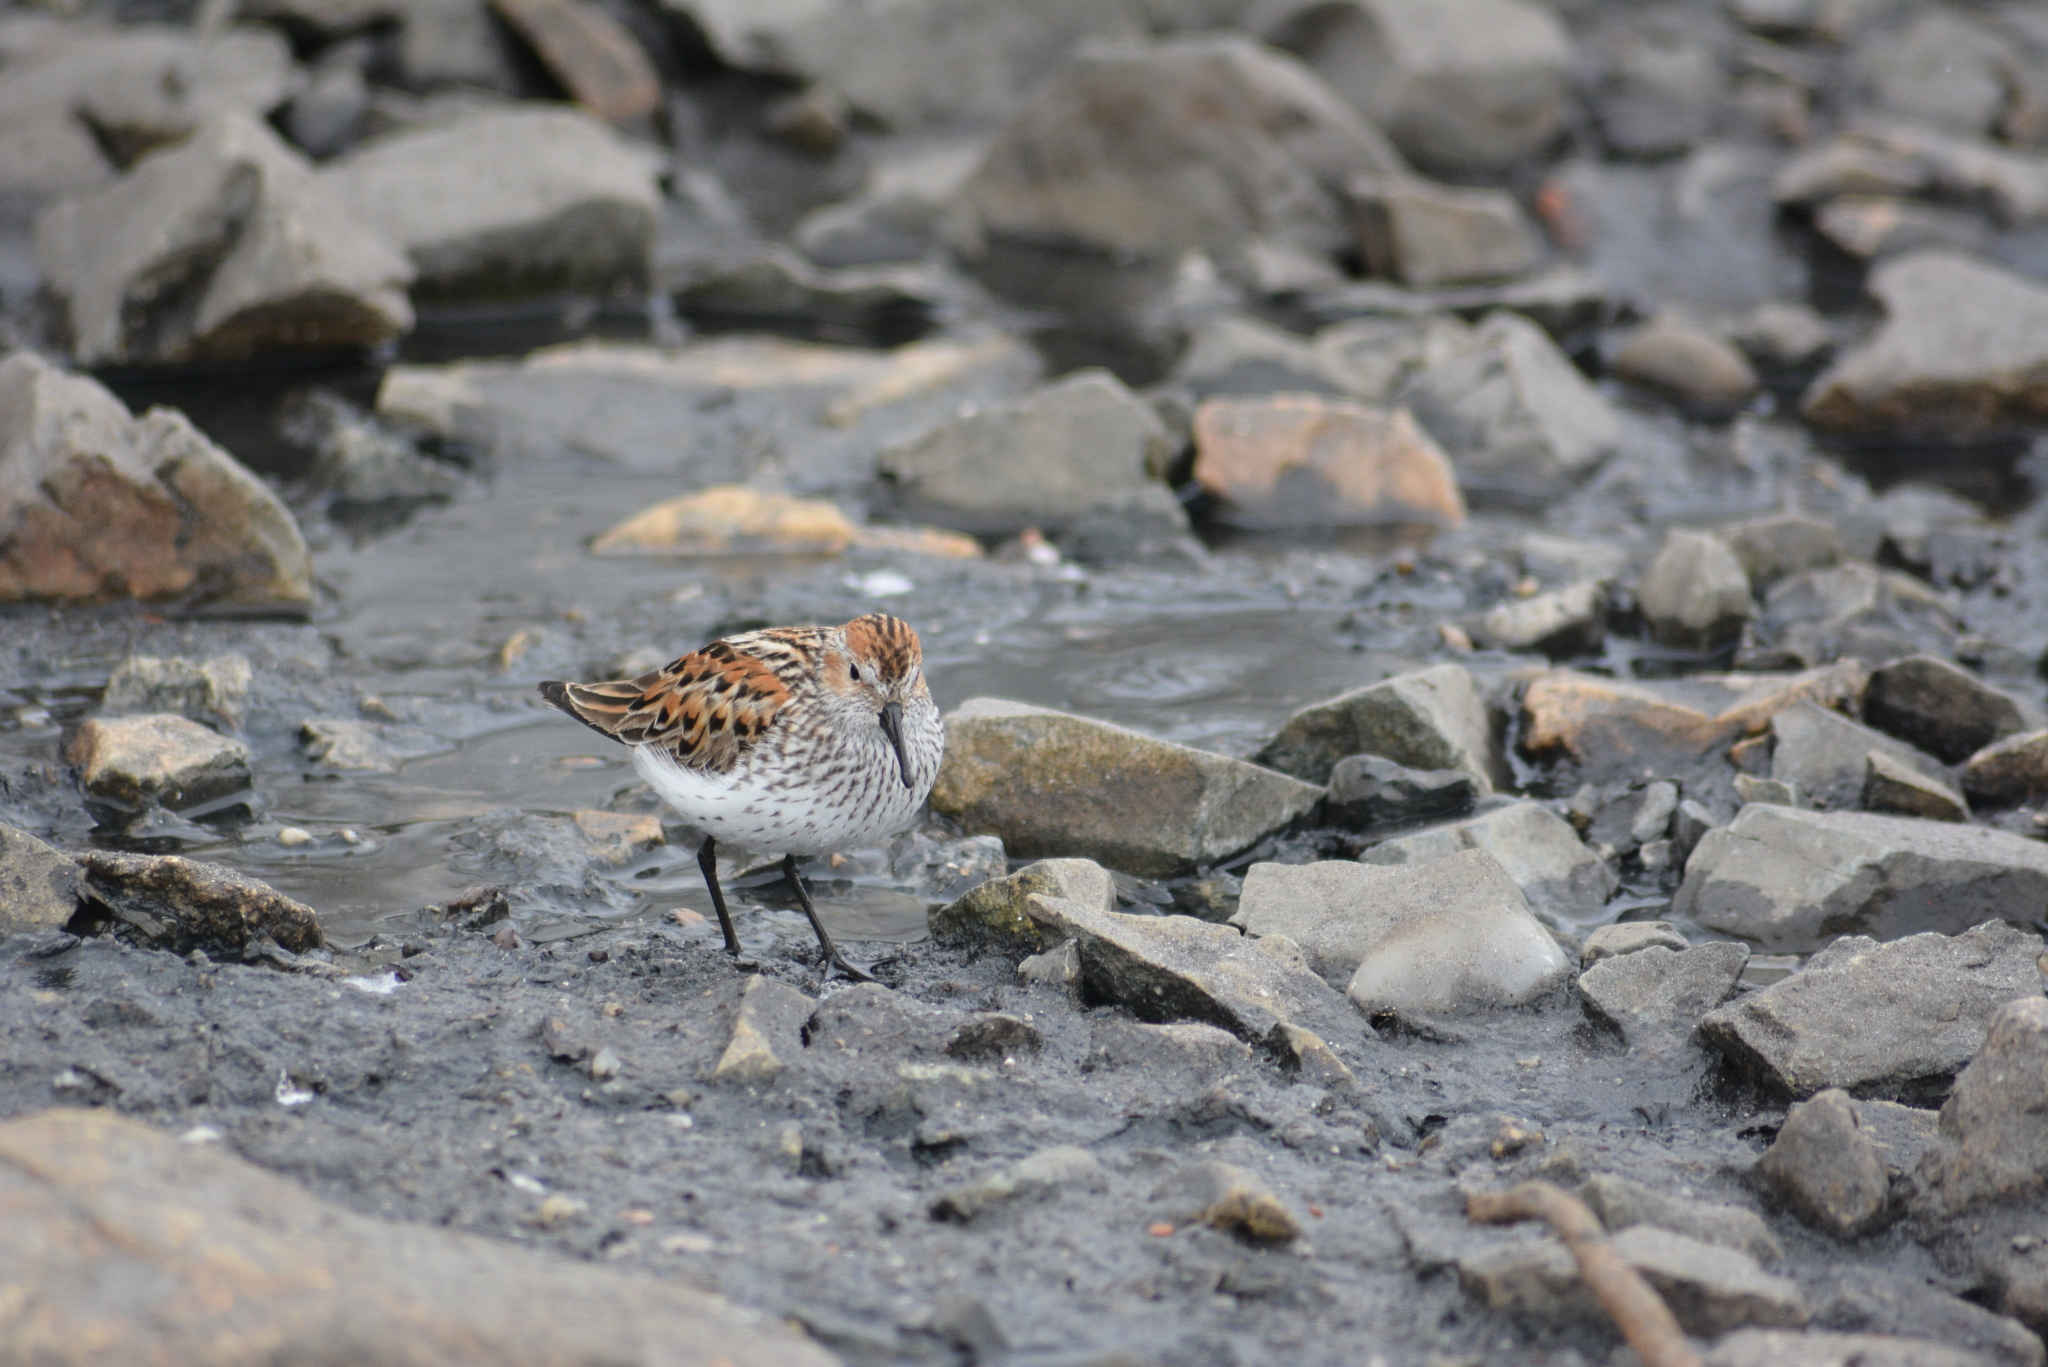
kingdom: Animalia
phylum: Chordata
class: Aves
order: Charadriiformes
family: Scolopacidae
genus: Calidris
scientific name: Calidris mauri
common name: Western sandpiper
